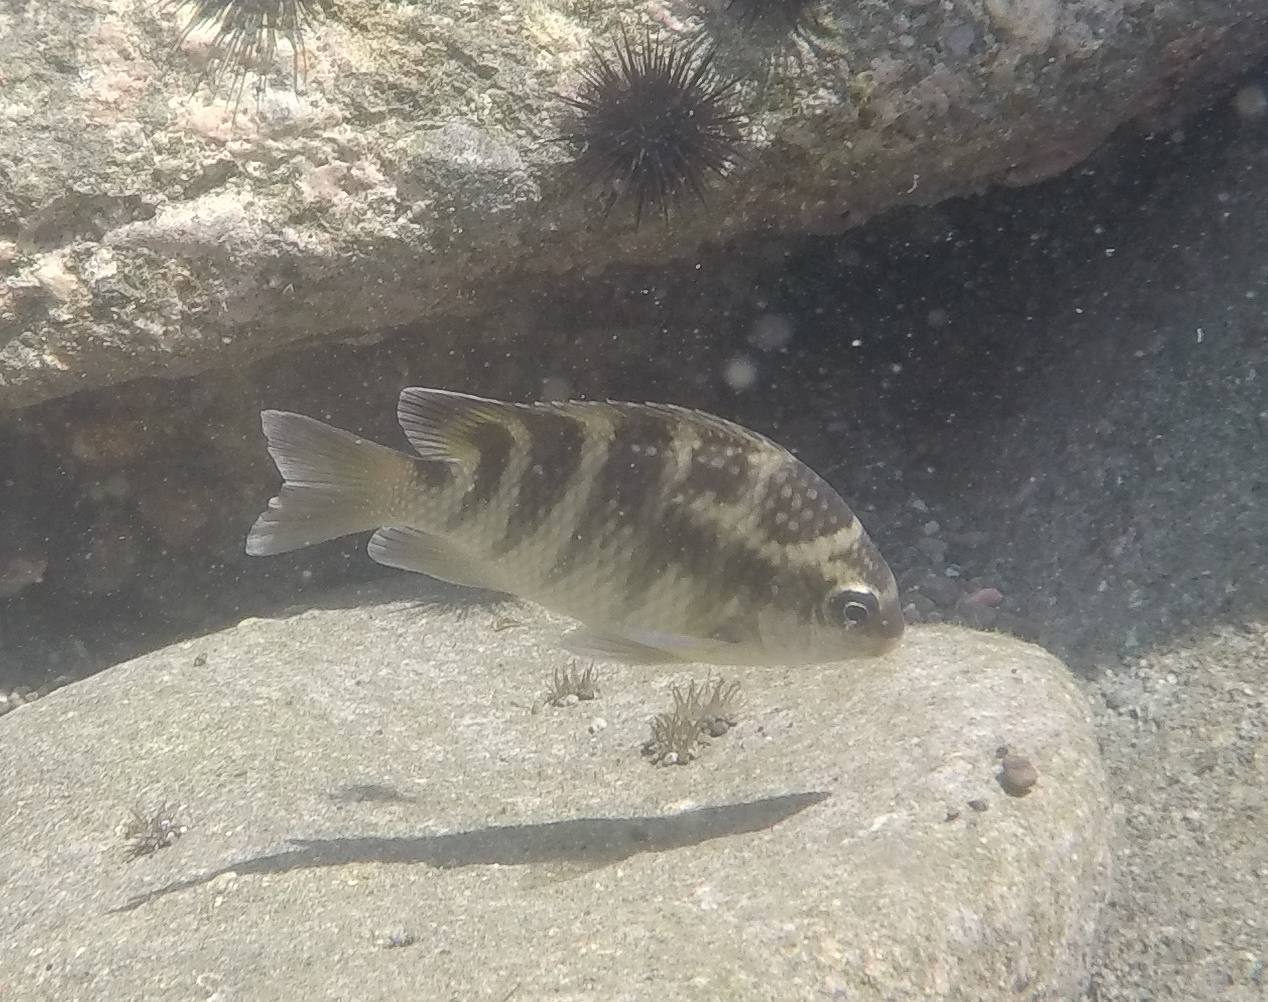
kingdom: Animalia
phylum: Chordata
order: Perciformes
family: Pomacentridae
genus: Abudefduf
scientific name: Abudefduf concolor
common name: Dusky seargent
